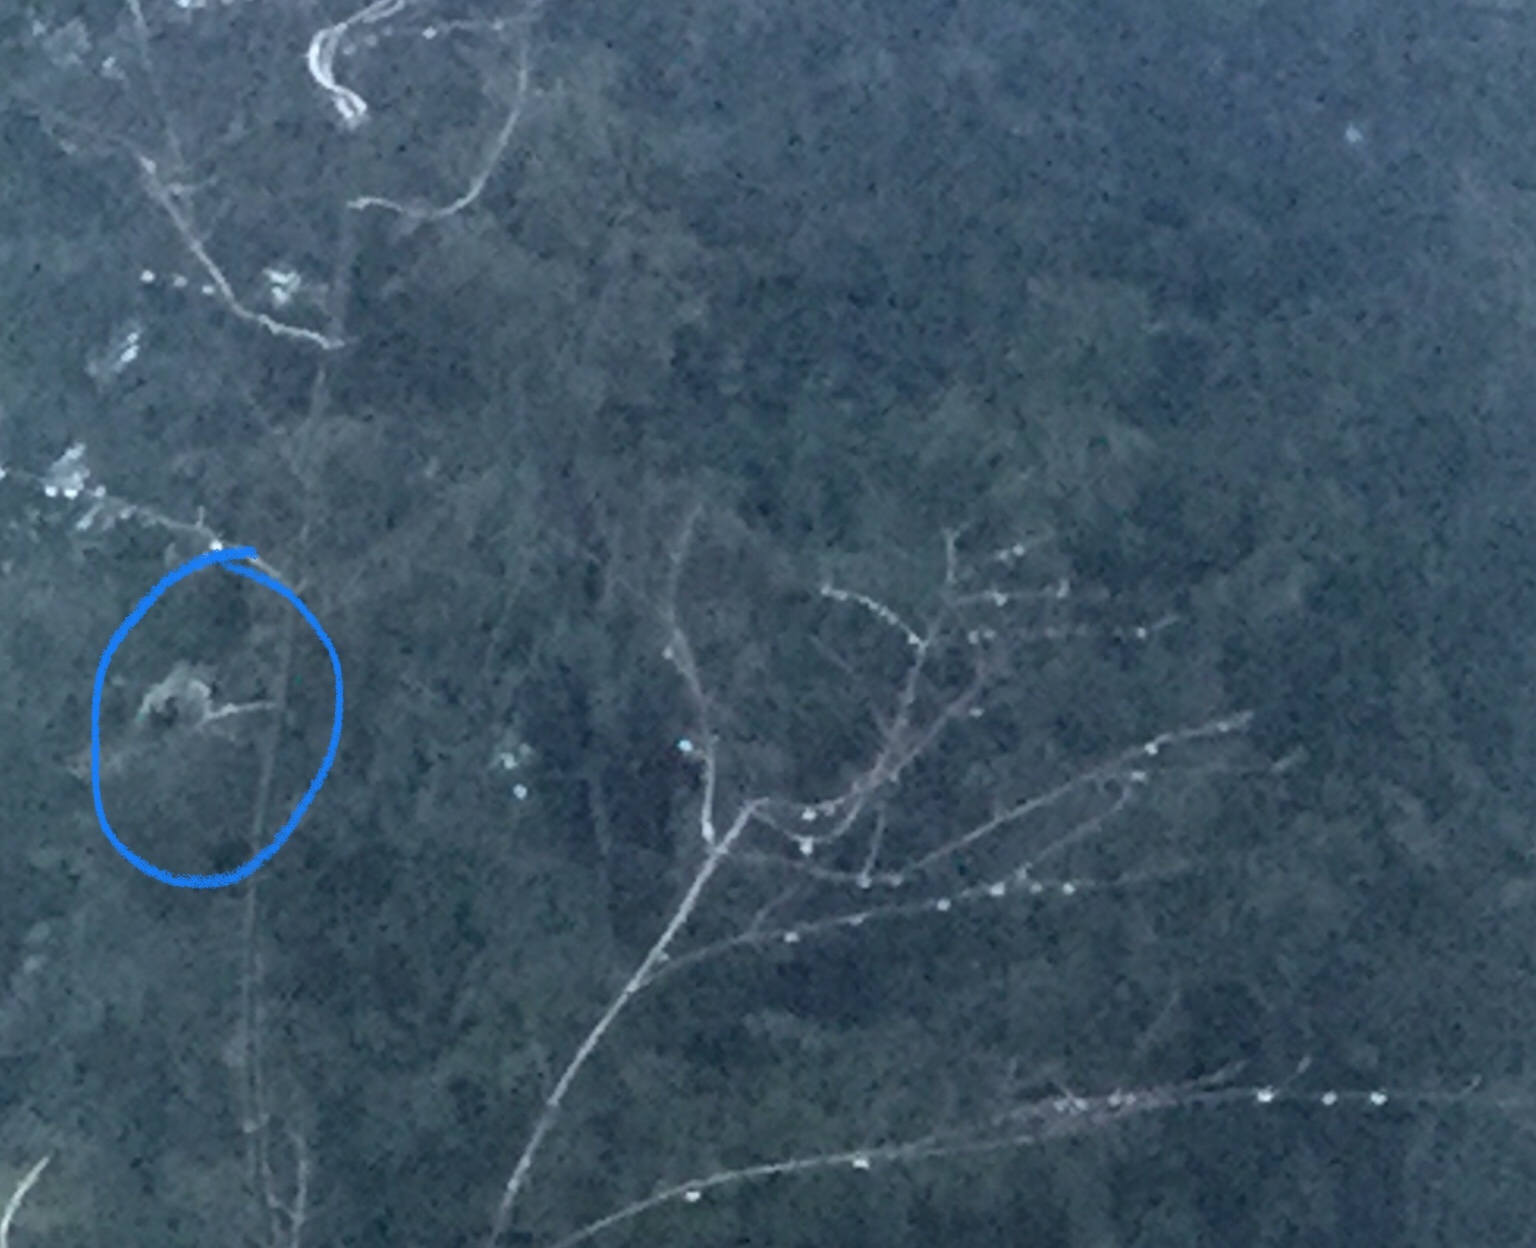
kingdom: Animalia
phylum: Chordata
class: Aves
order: Apodiformes
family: Trochilidae
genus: Calypte
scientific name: Calypte anna
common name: Anna's hummingbird
